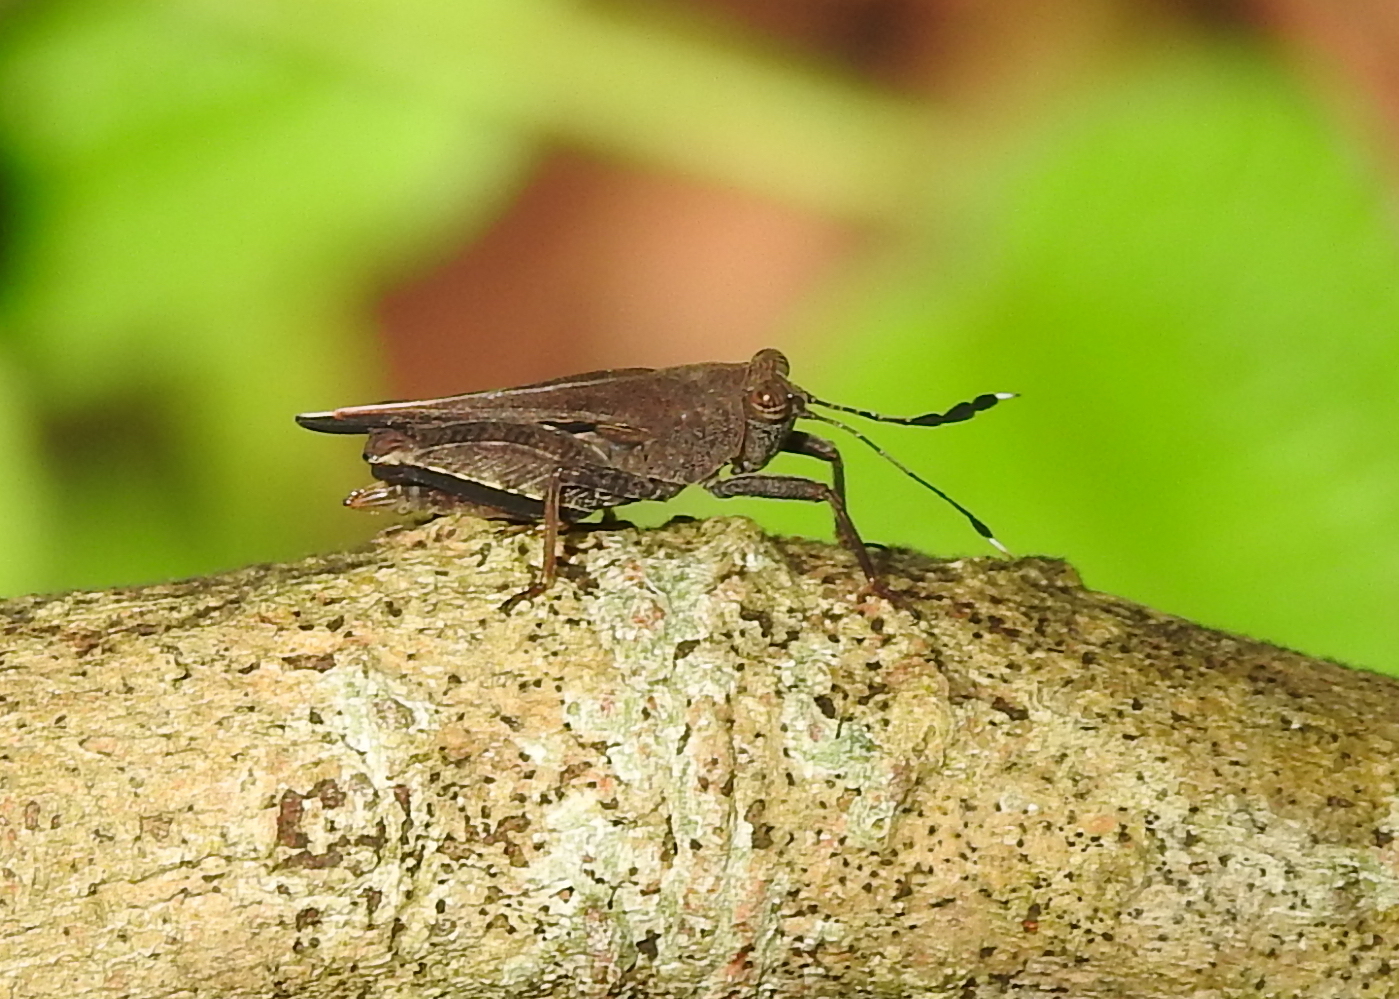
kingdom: Animalia
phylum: Arthropoda
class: Insecta
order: Orthoptera
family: Tetrigidae
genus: Phaesticus
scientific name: Phaesticus mellerborgi
